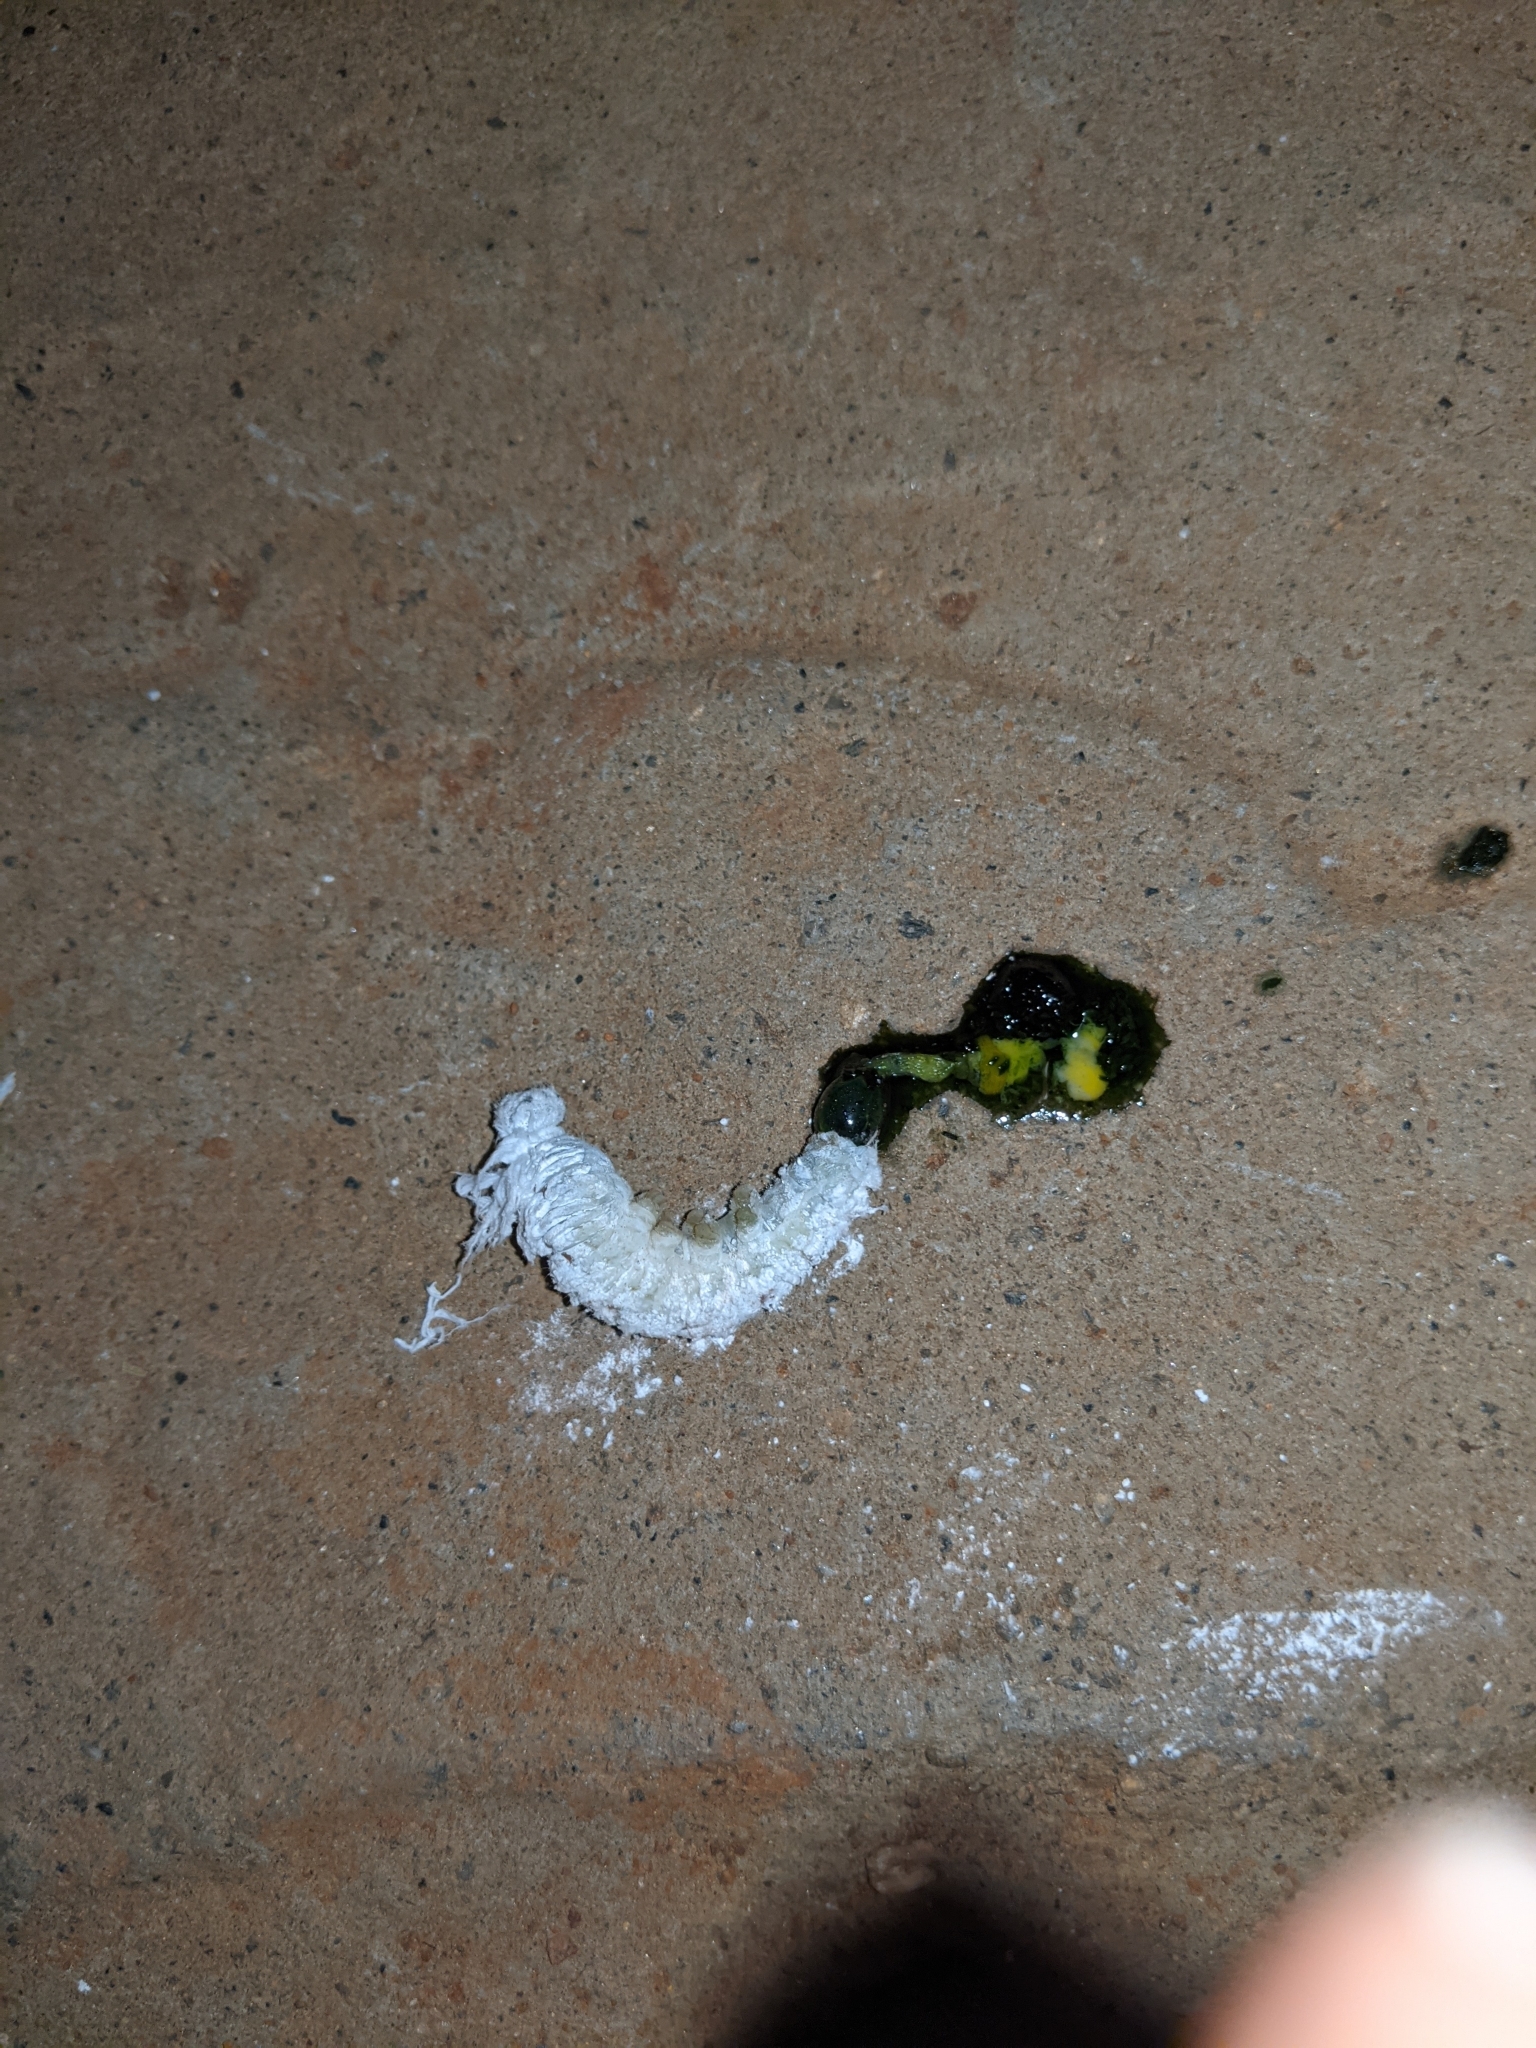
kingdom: Animalia
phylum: Arthropoda
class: Insecta
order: Lepidoptera
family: Hesperiidae
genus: Gangara
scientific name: Gangara thyrsis
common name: Giant redeye
